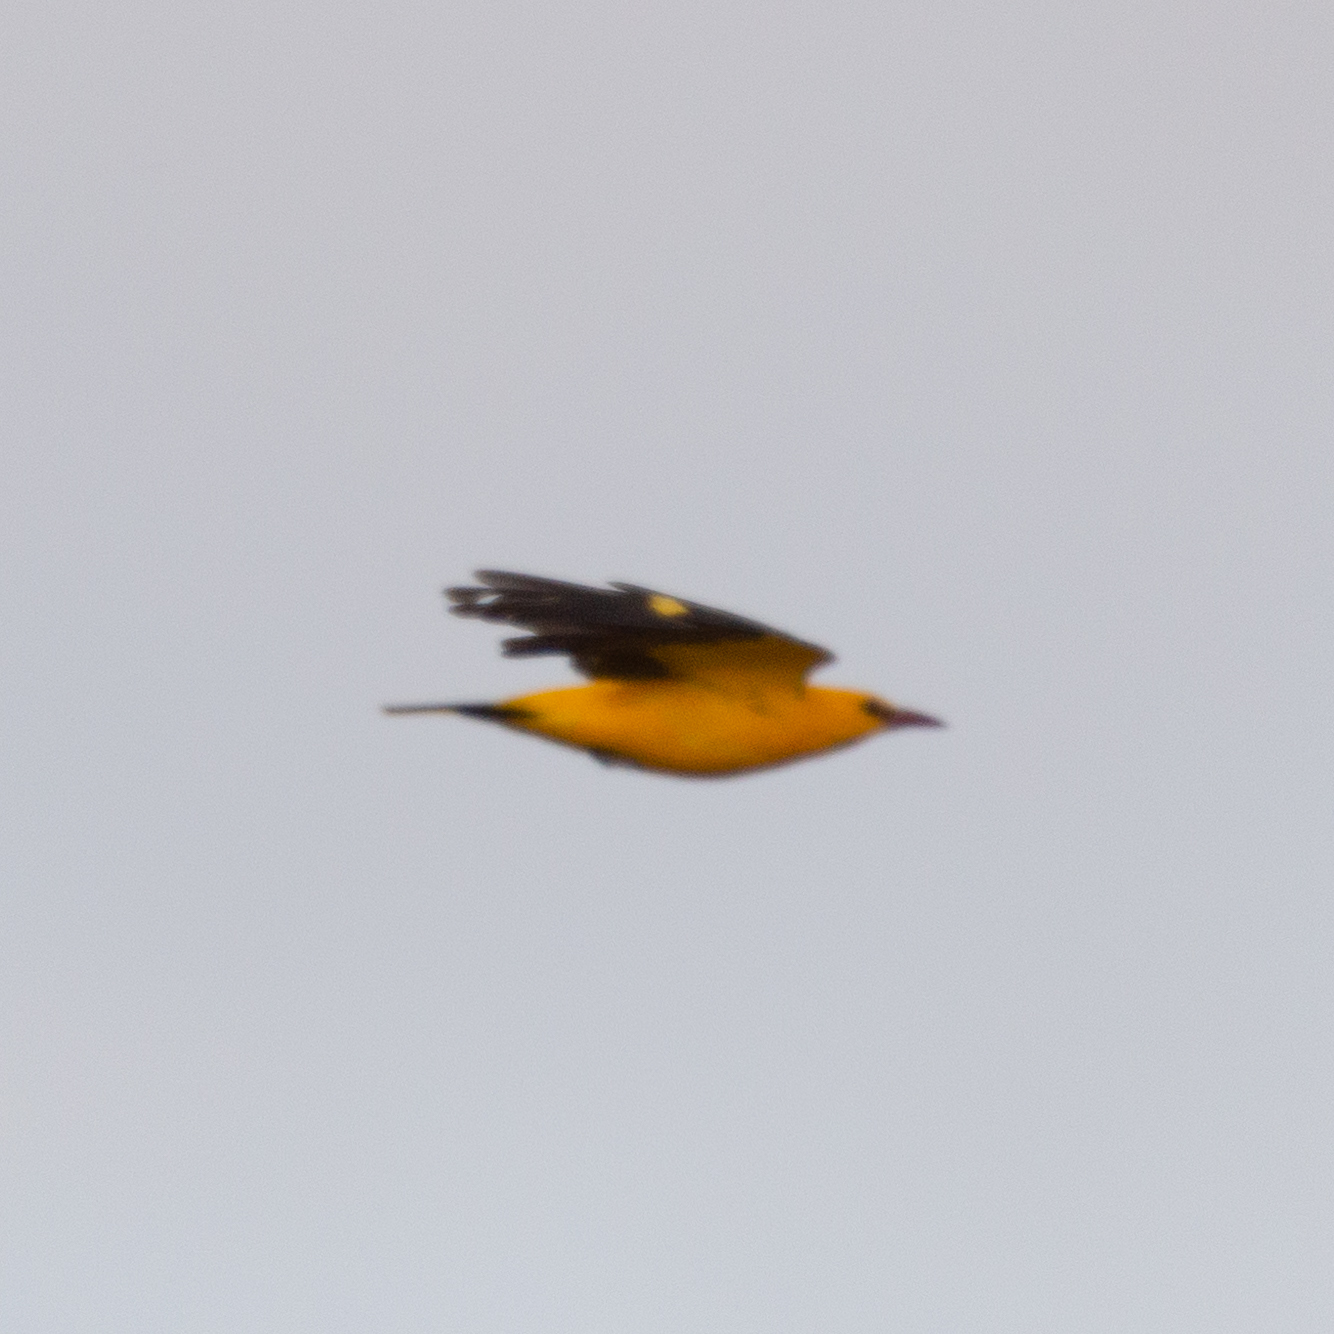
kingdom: Animalia
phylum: Chordata
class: Aves
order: Passeriformes
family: Oriolidae
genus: Oriolus
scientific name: Oriolus oriolus
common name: Eurasian golden oriole
